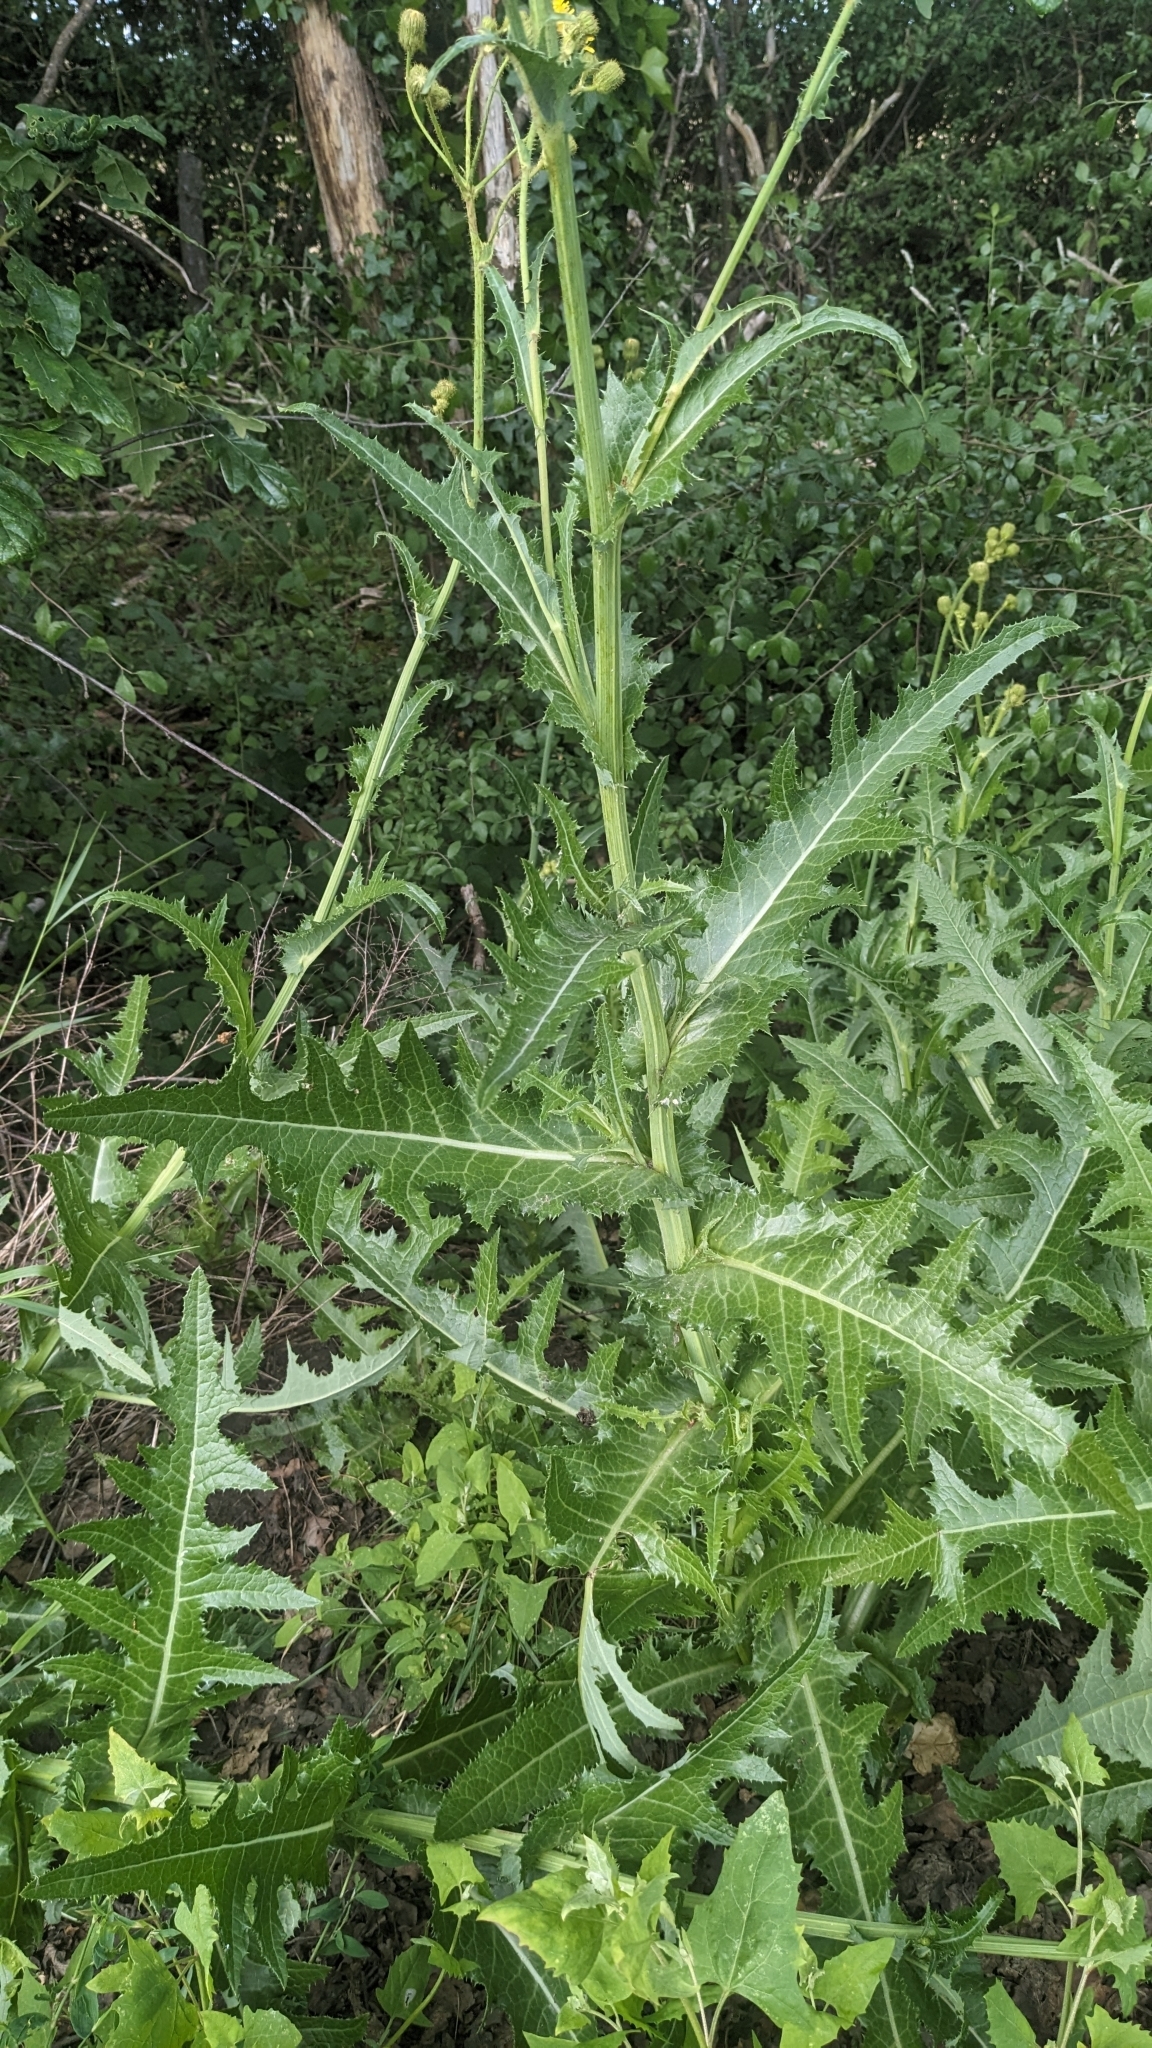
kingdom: Plantae
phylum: Tracheophyta
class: Magnoliopsida
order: Asterales
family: Asteraceae
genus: Sonchus
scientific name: Sonchus arvensis
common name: Perennial sow-thistle
